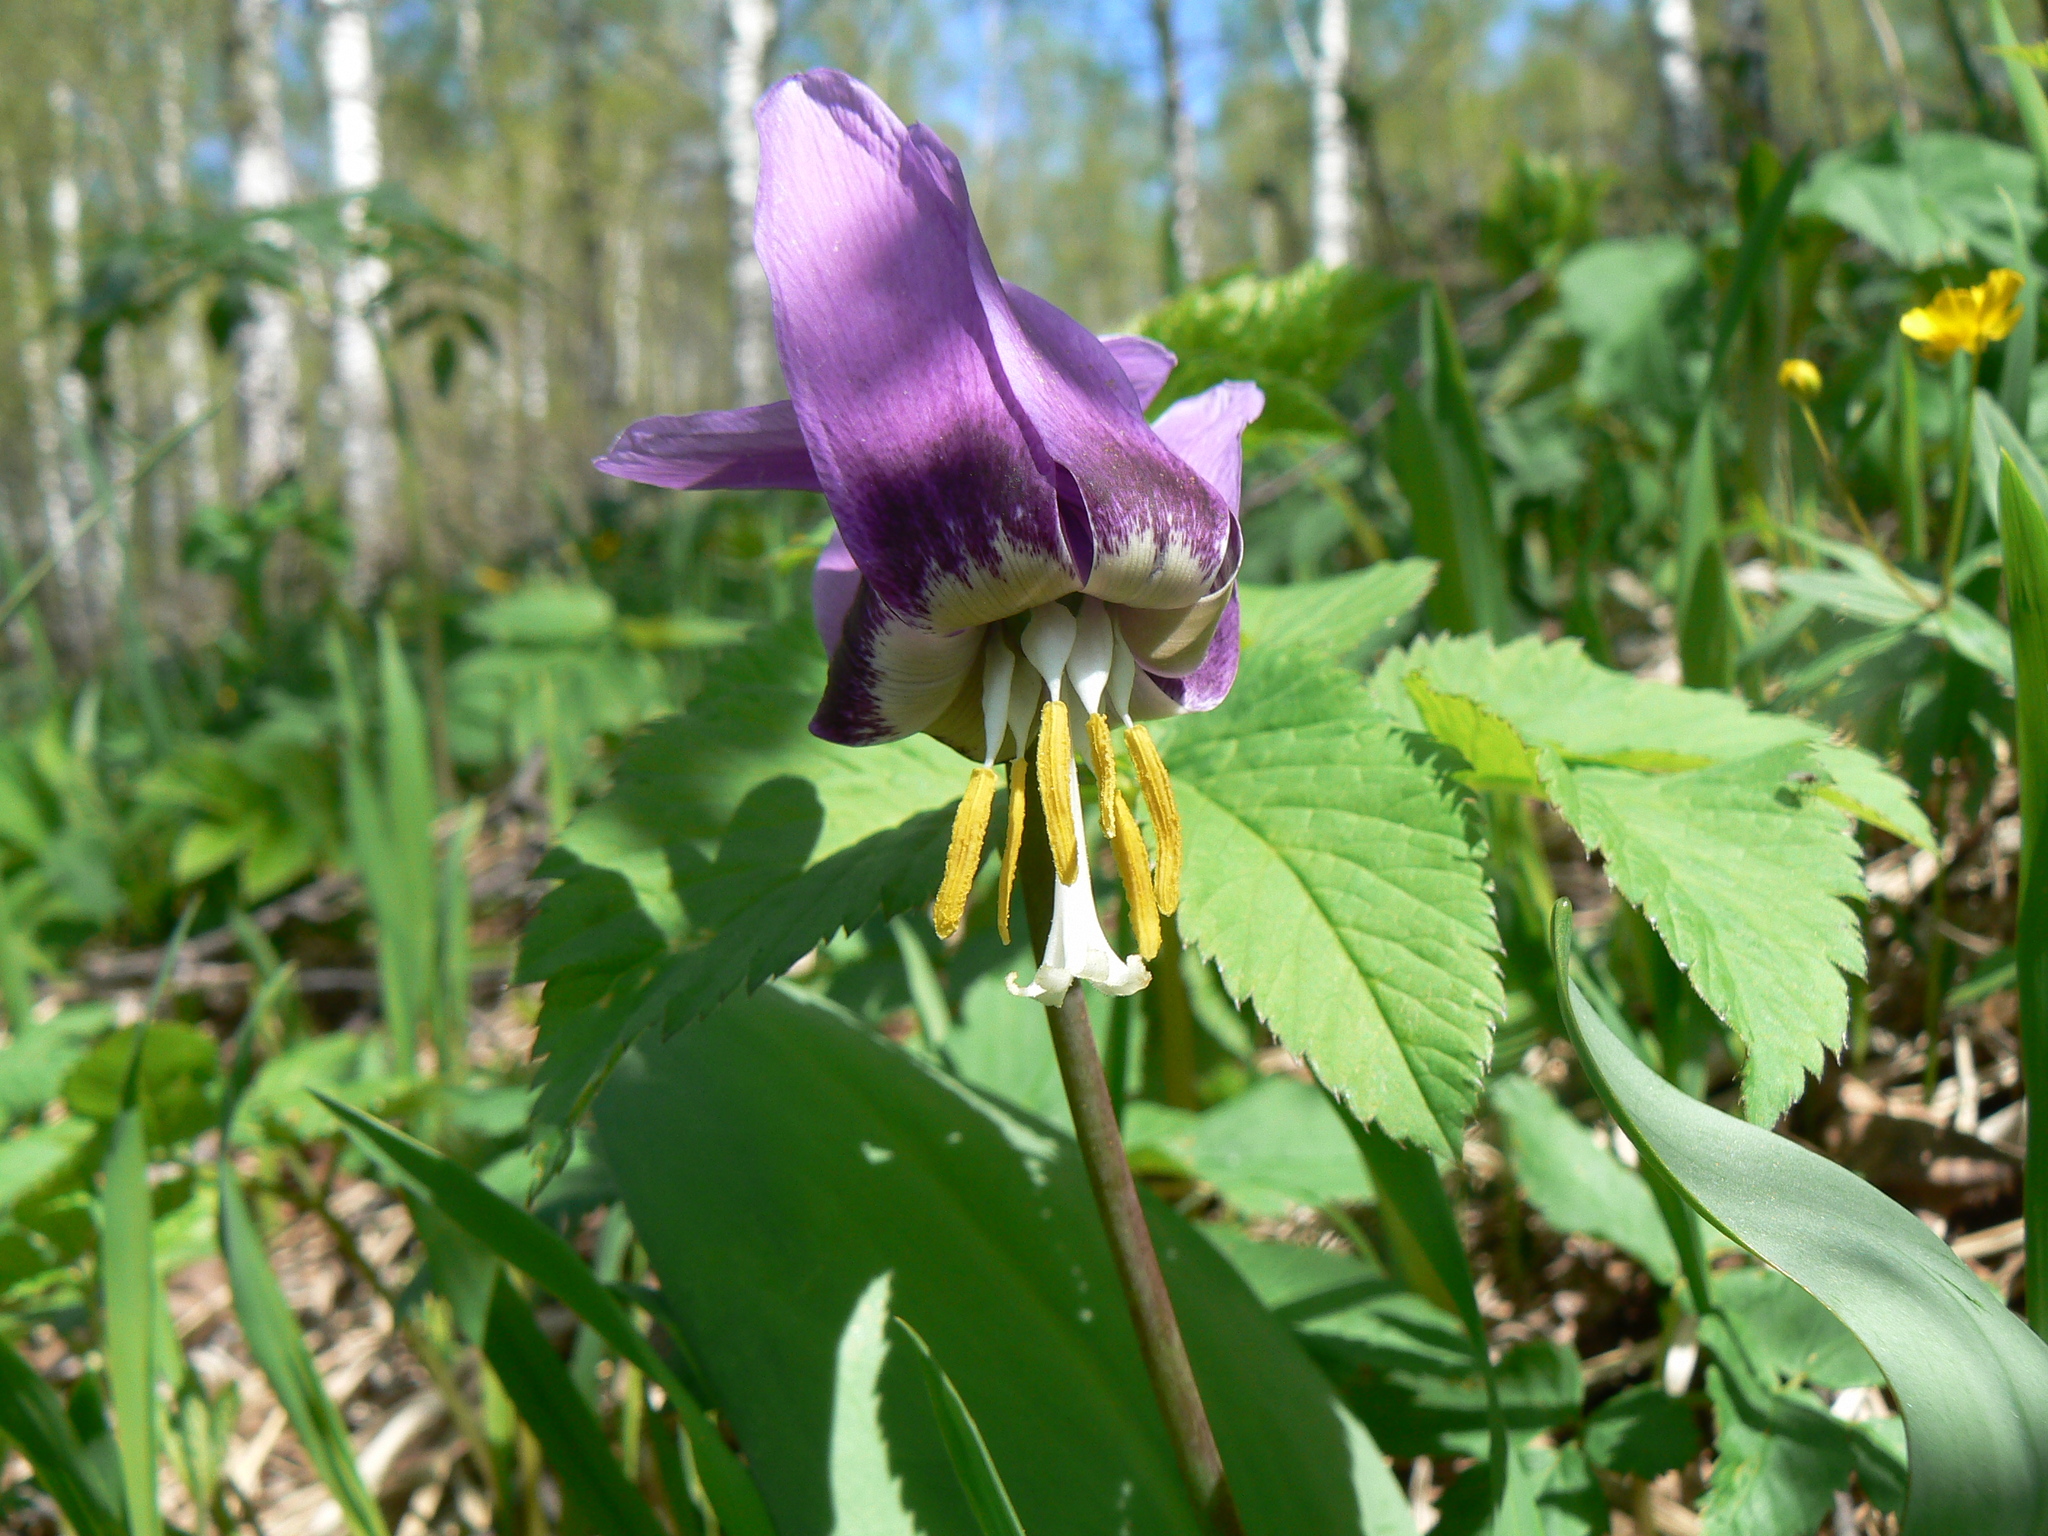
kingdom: Plantae
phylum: Tracheophyta
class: Liliopsida
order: Liliales
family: Liliaceae
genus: Erythronium
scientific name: Erythronium sibiricum
